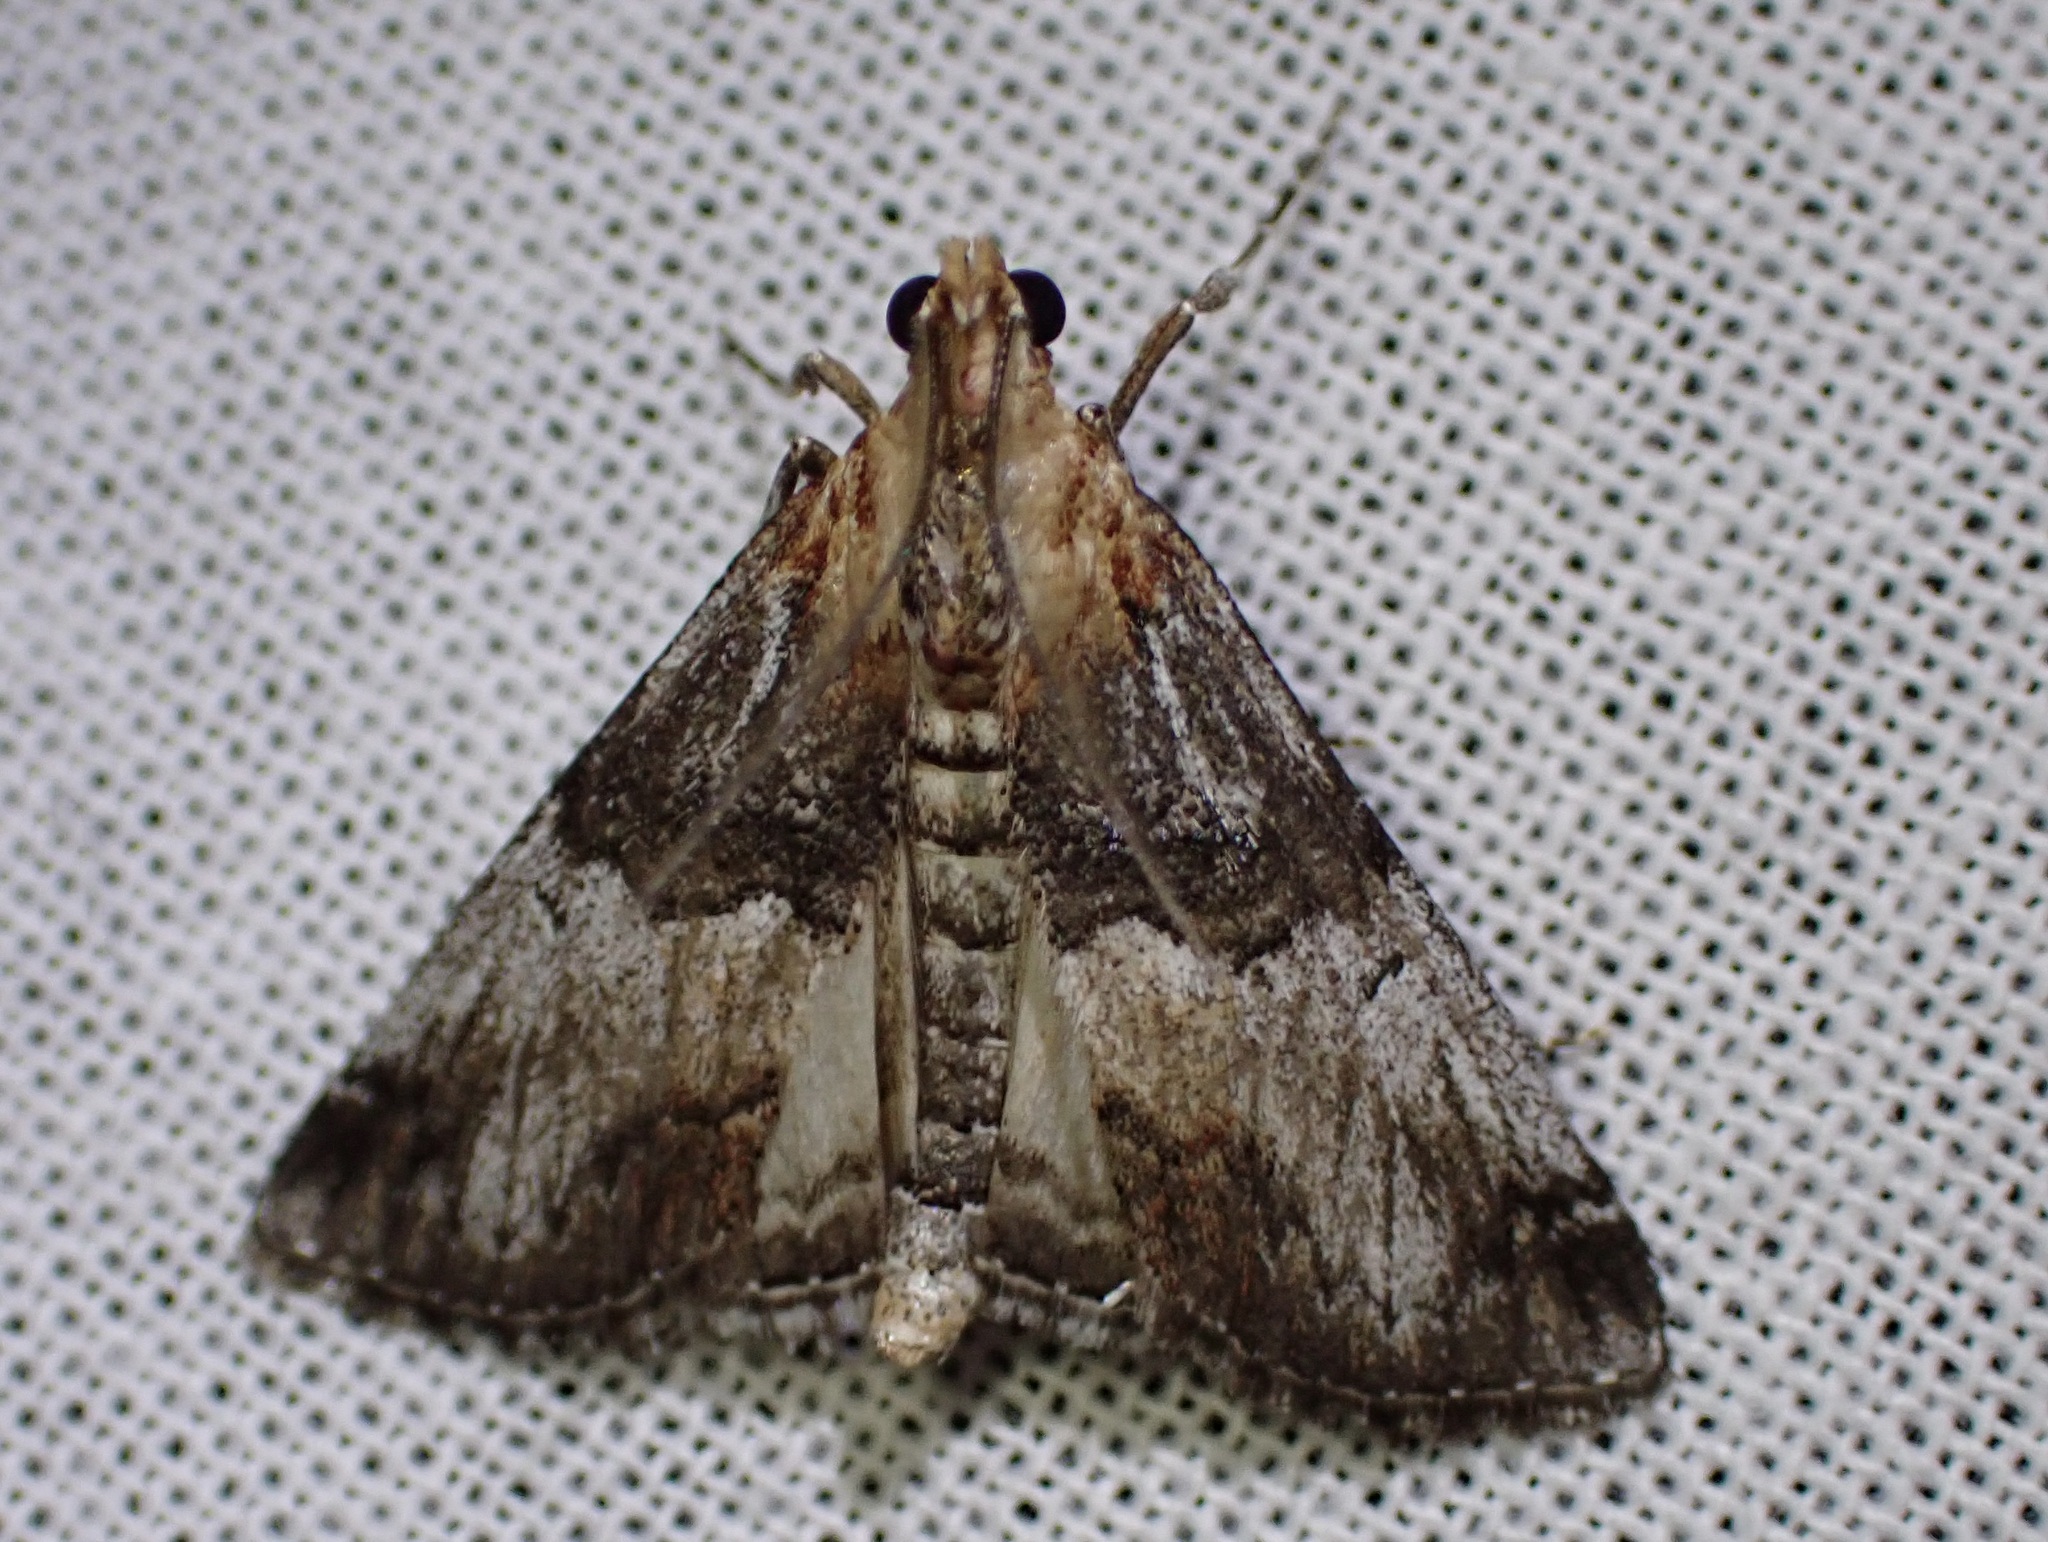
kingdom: Animalia
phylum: Arthropoda
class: Insecta
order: Lepidoptera
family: Pyralidae
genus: Toripalpus
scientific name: Toripalpus trabalis
